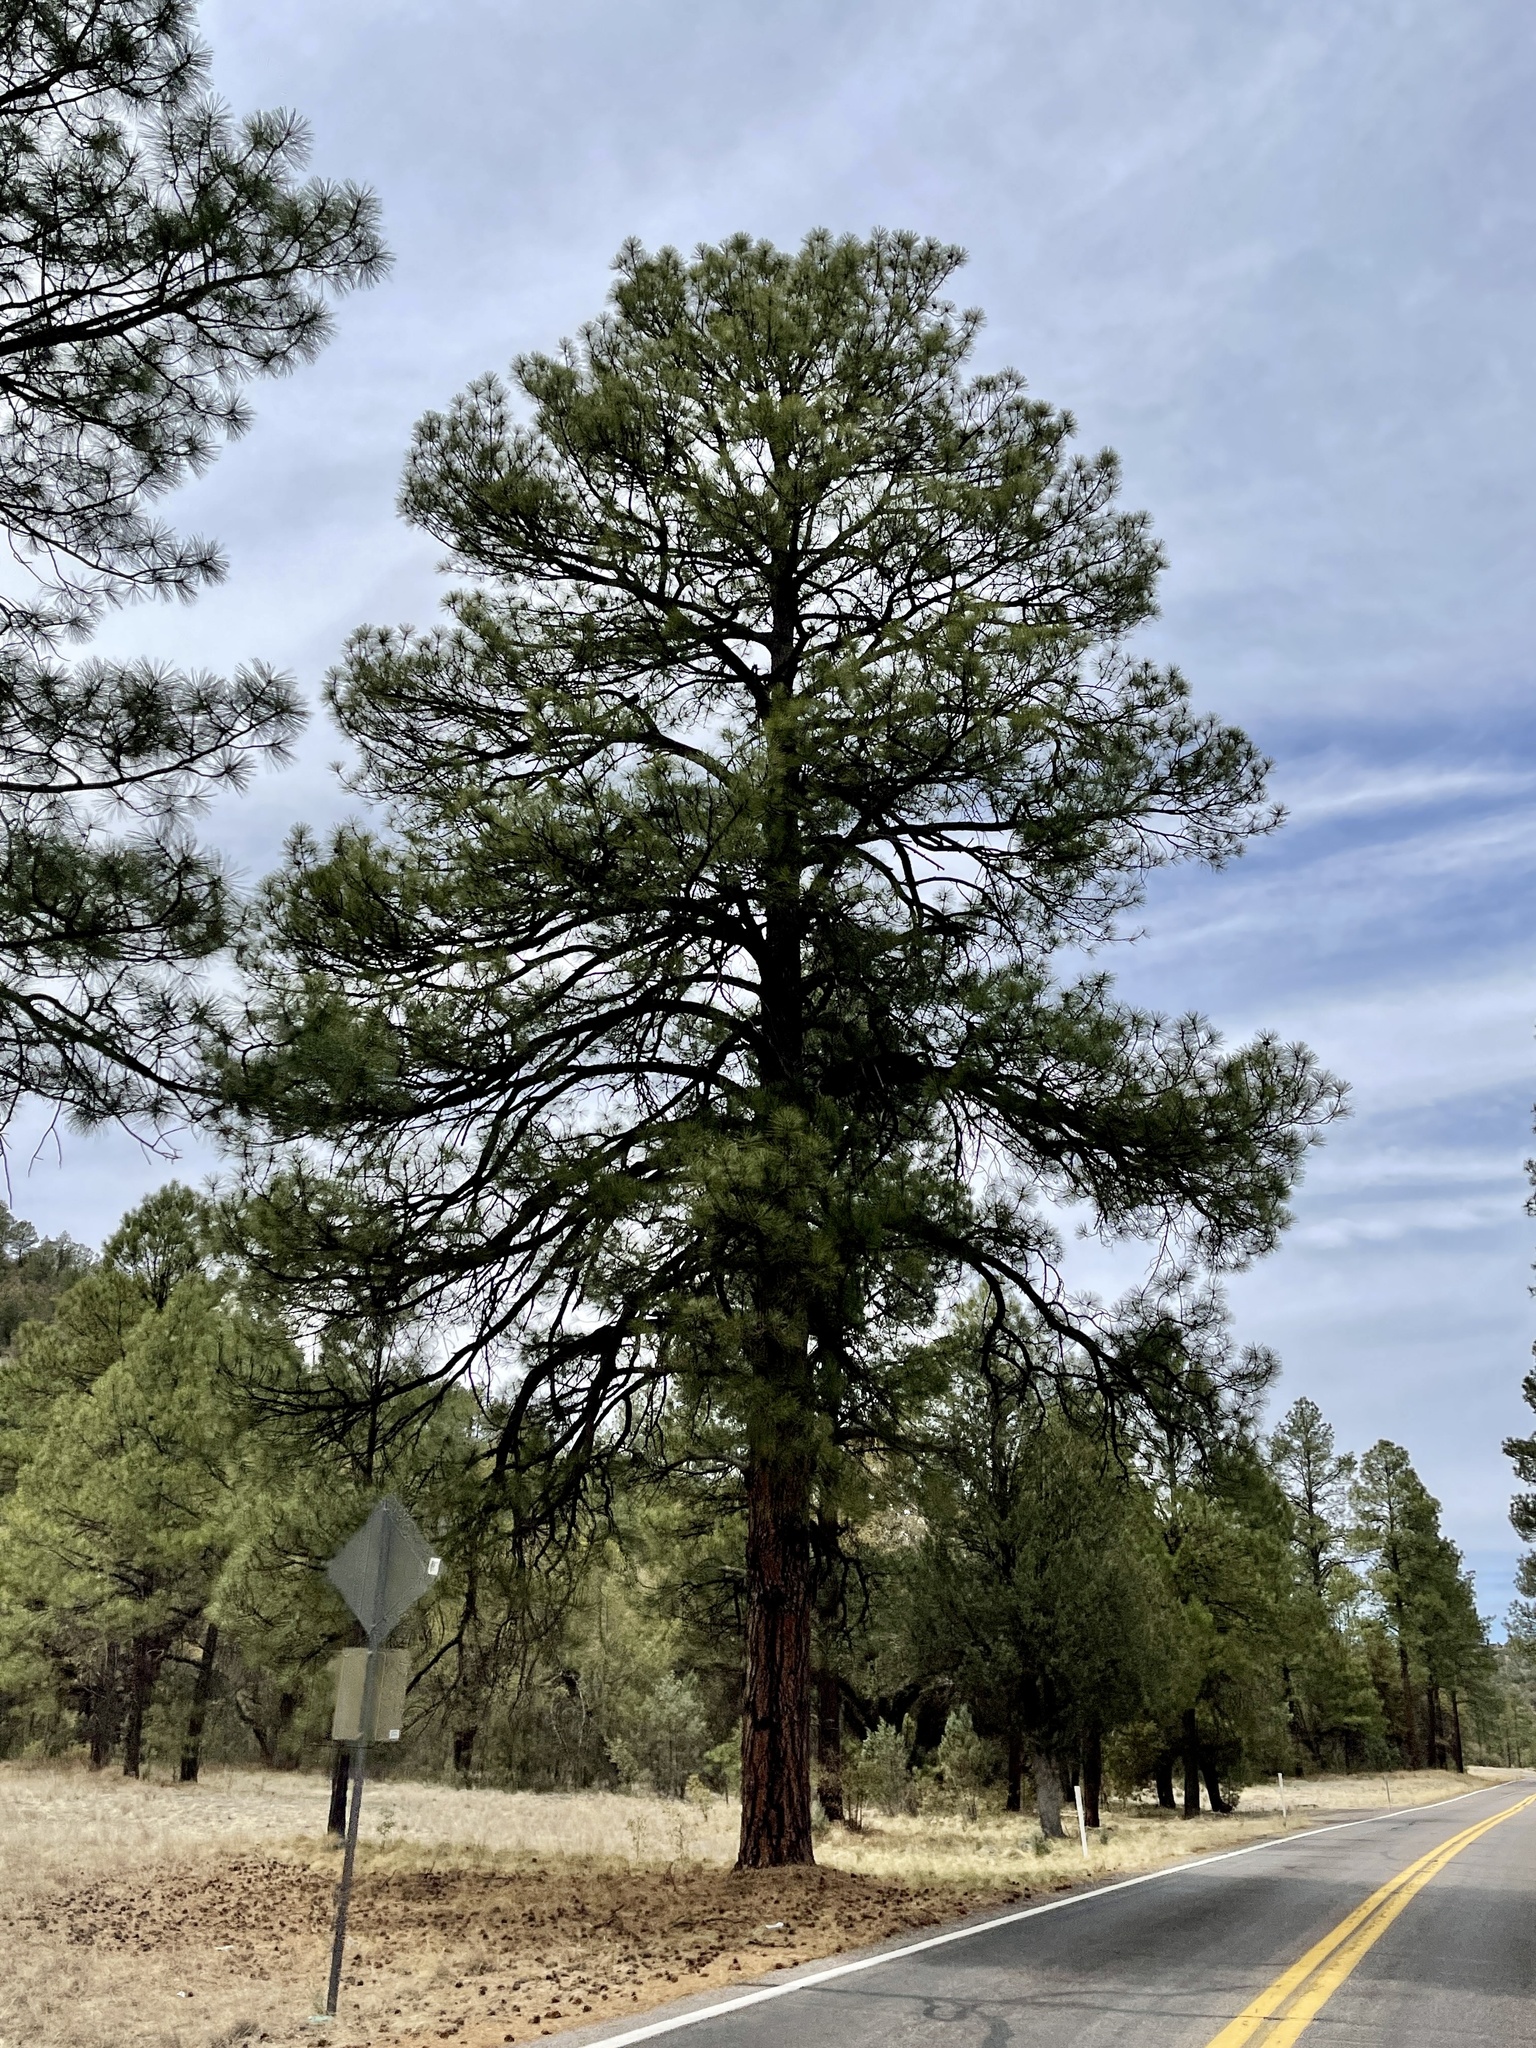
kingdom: Plantae
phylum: Tracheophyta
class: Pinopsida
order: Pinales
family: Pinaceae
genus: Pinus
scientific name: Pinus ponderosa
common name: Western yellow-pine
